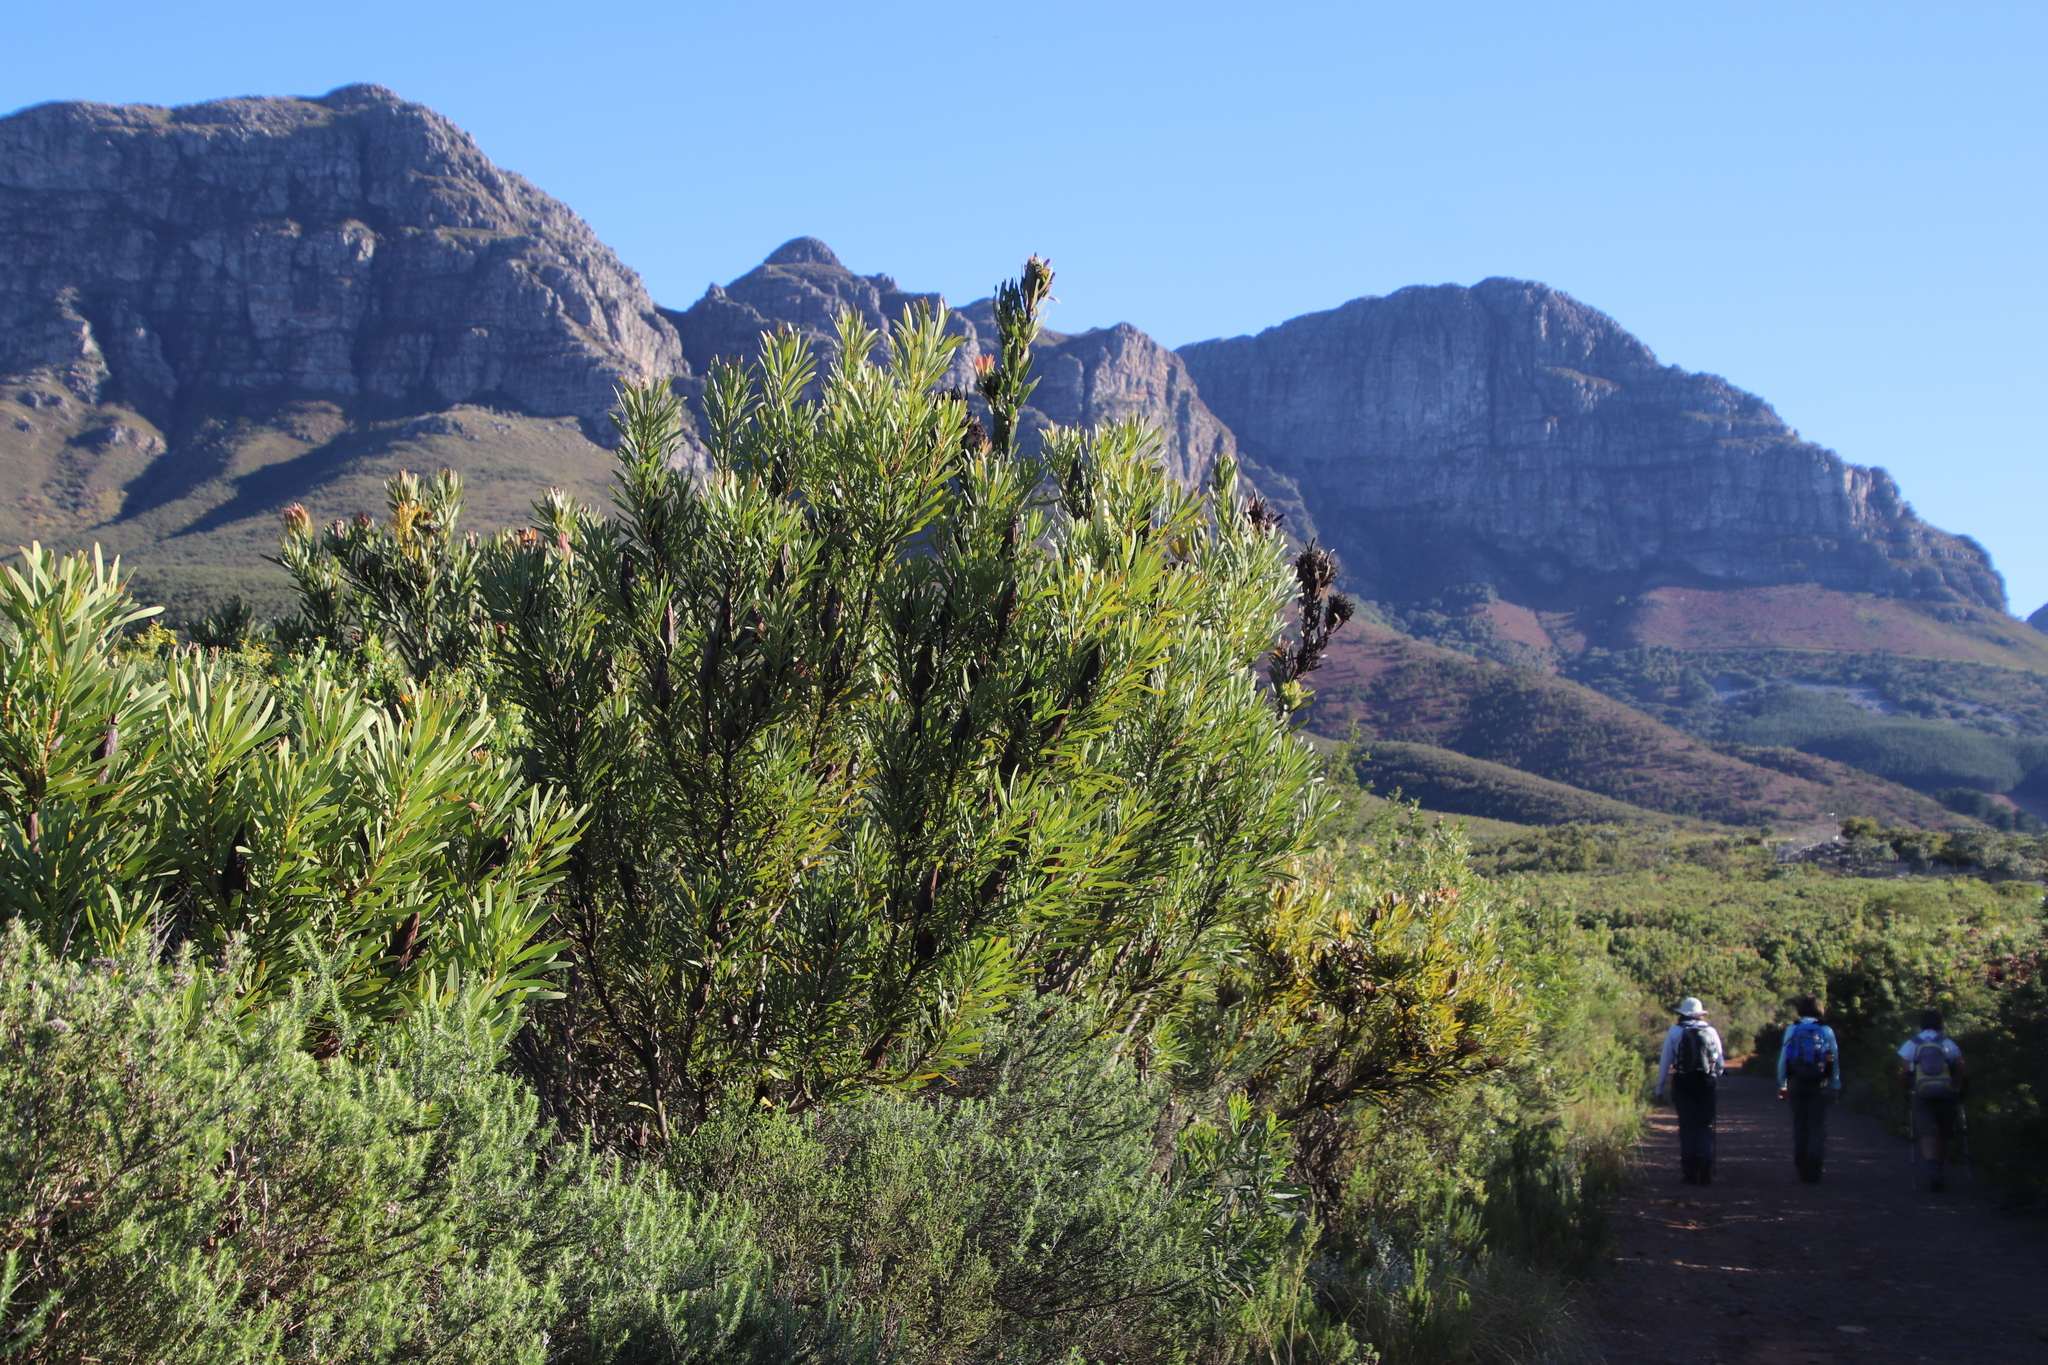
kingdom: Plantae
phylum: Tracheophyta
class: Magnoliopsida
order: Proteales
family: Proteaceae
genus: Protea
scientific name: Protea repens
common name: Sugarbush
